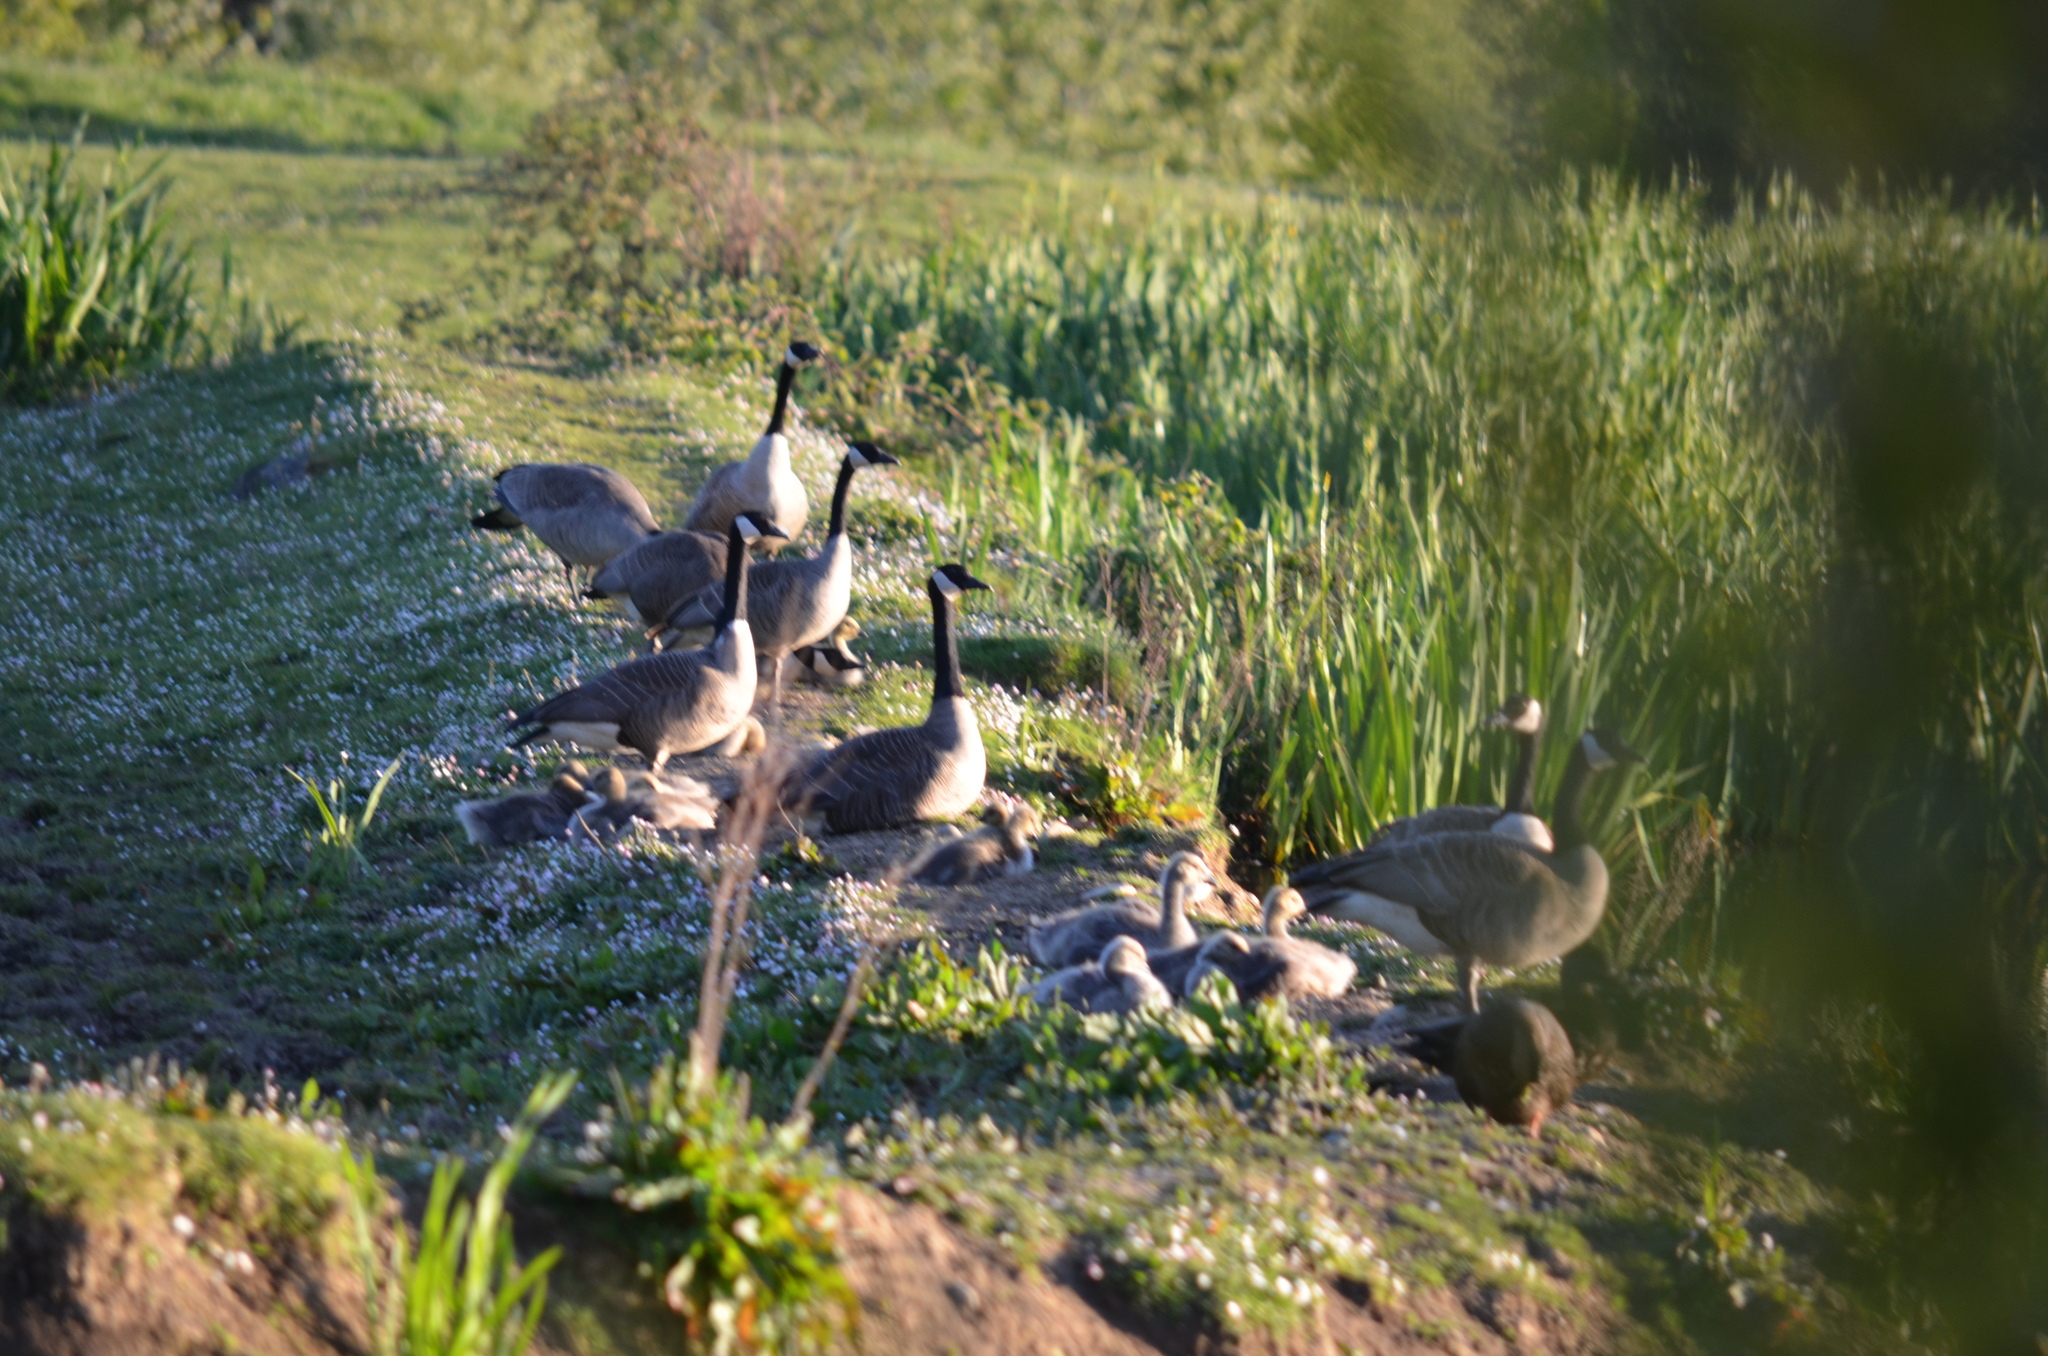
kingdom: Animalia
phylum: Chordata
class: Aves
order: Anseriformes
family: Anatidae
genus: Branta
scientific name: Branta canadensis
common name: Canada goose
